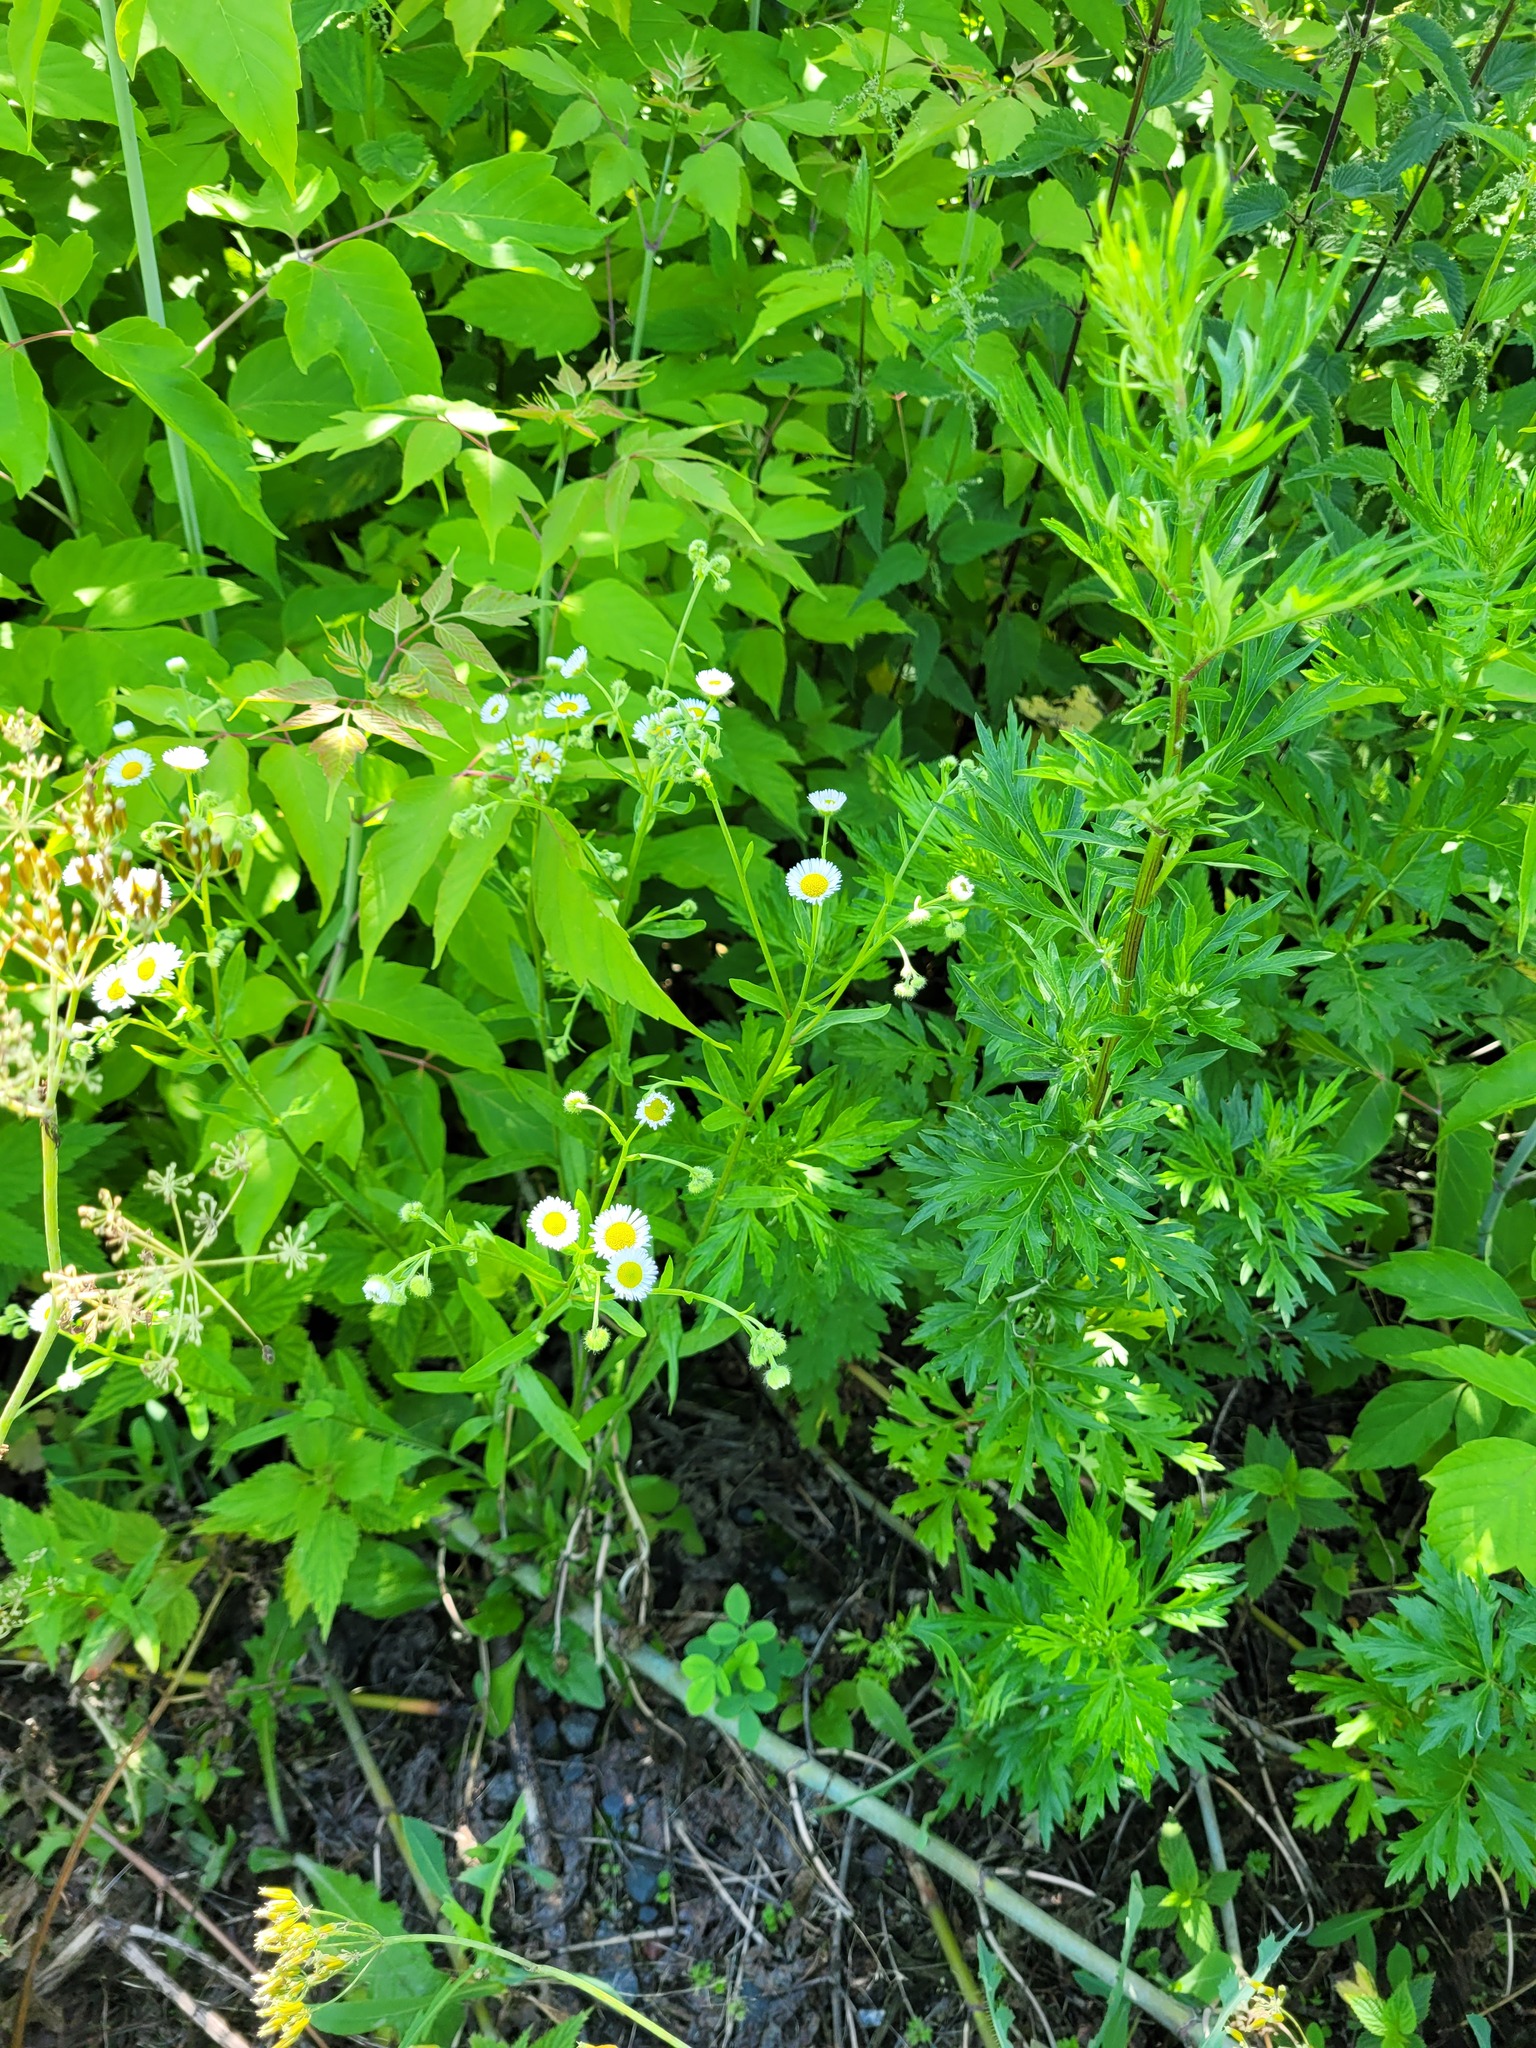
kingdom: Plantae
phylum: Tracheophyta
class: Magnoliopsida
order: Asterales
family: Asteraceae
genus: Erigeron
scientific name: Erigeron annuus
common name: Tall fleabane
